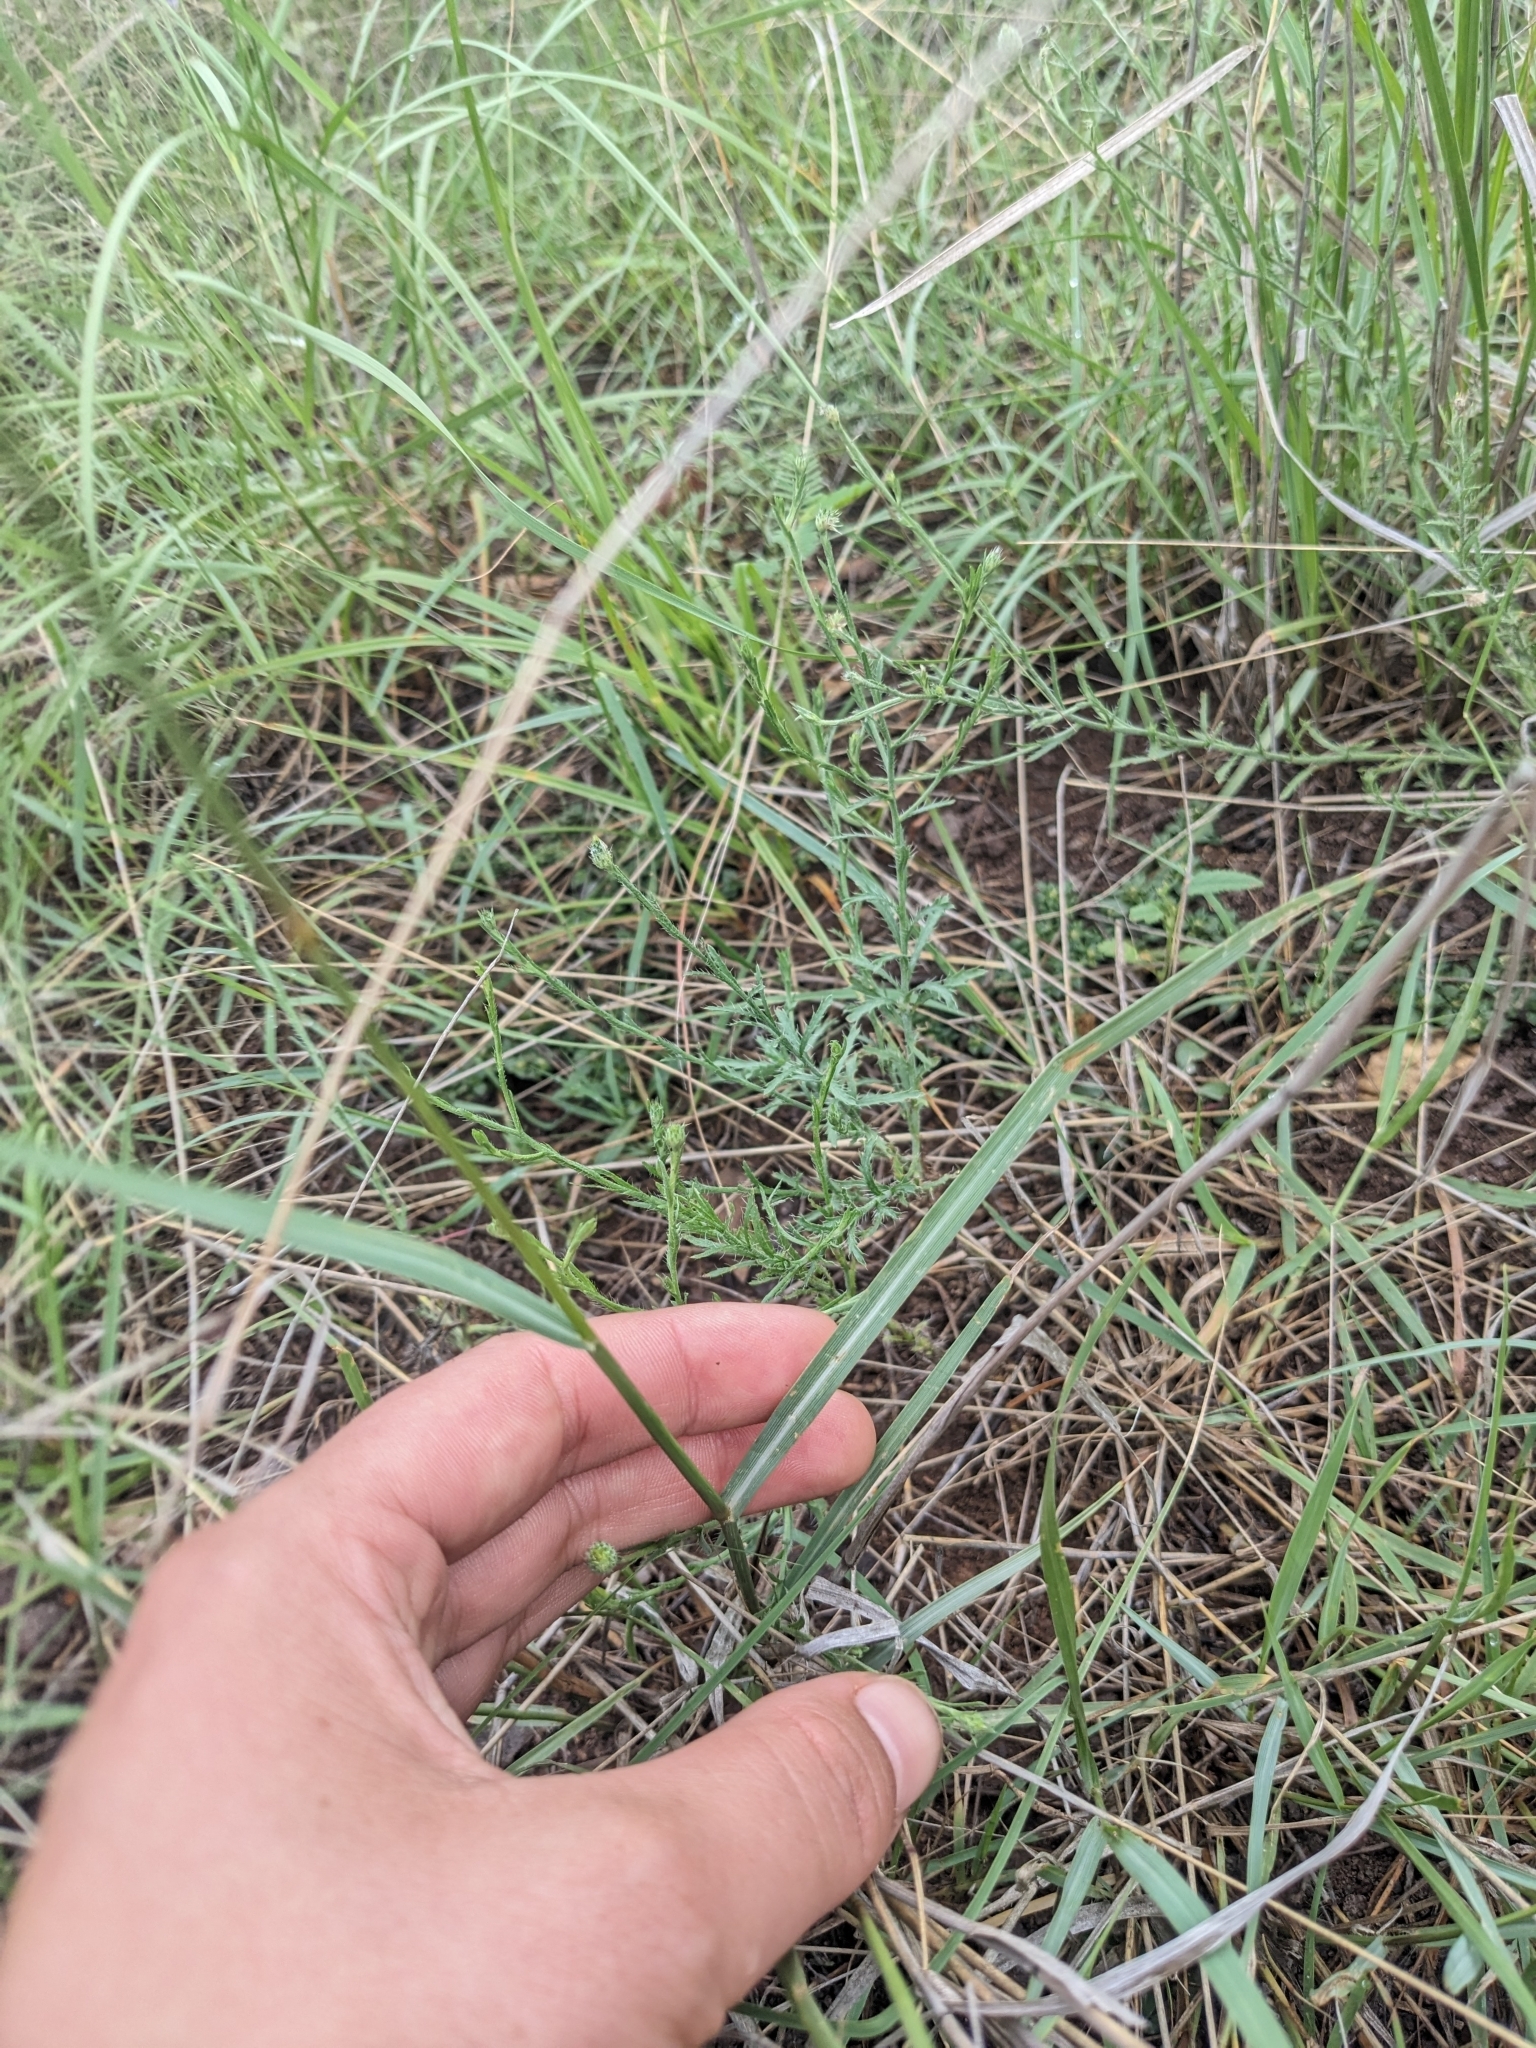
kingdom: Plantae
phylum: Tracheophyta
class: Liliopsida
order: Poales
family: Poaceae
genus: Hopia
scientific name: Hopia obtusa
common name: Vine-mesquite
